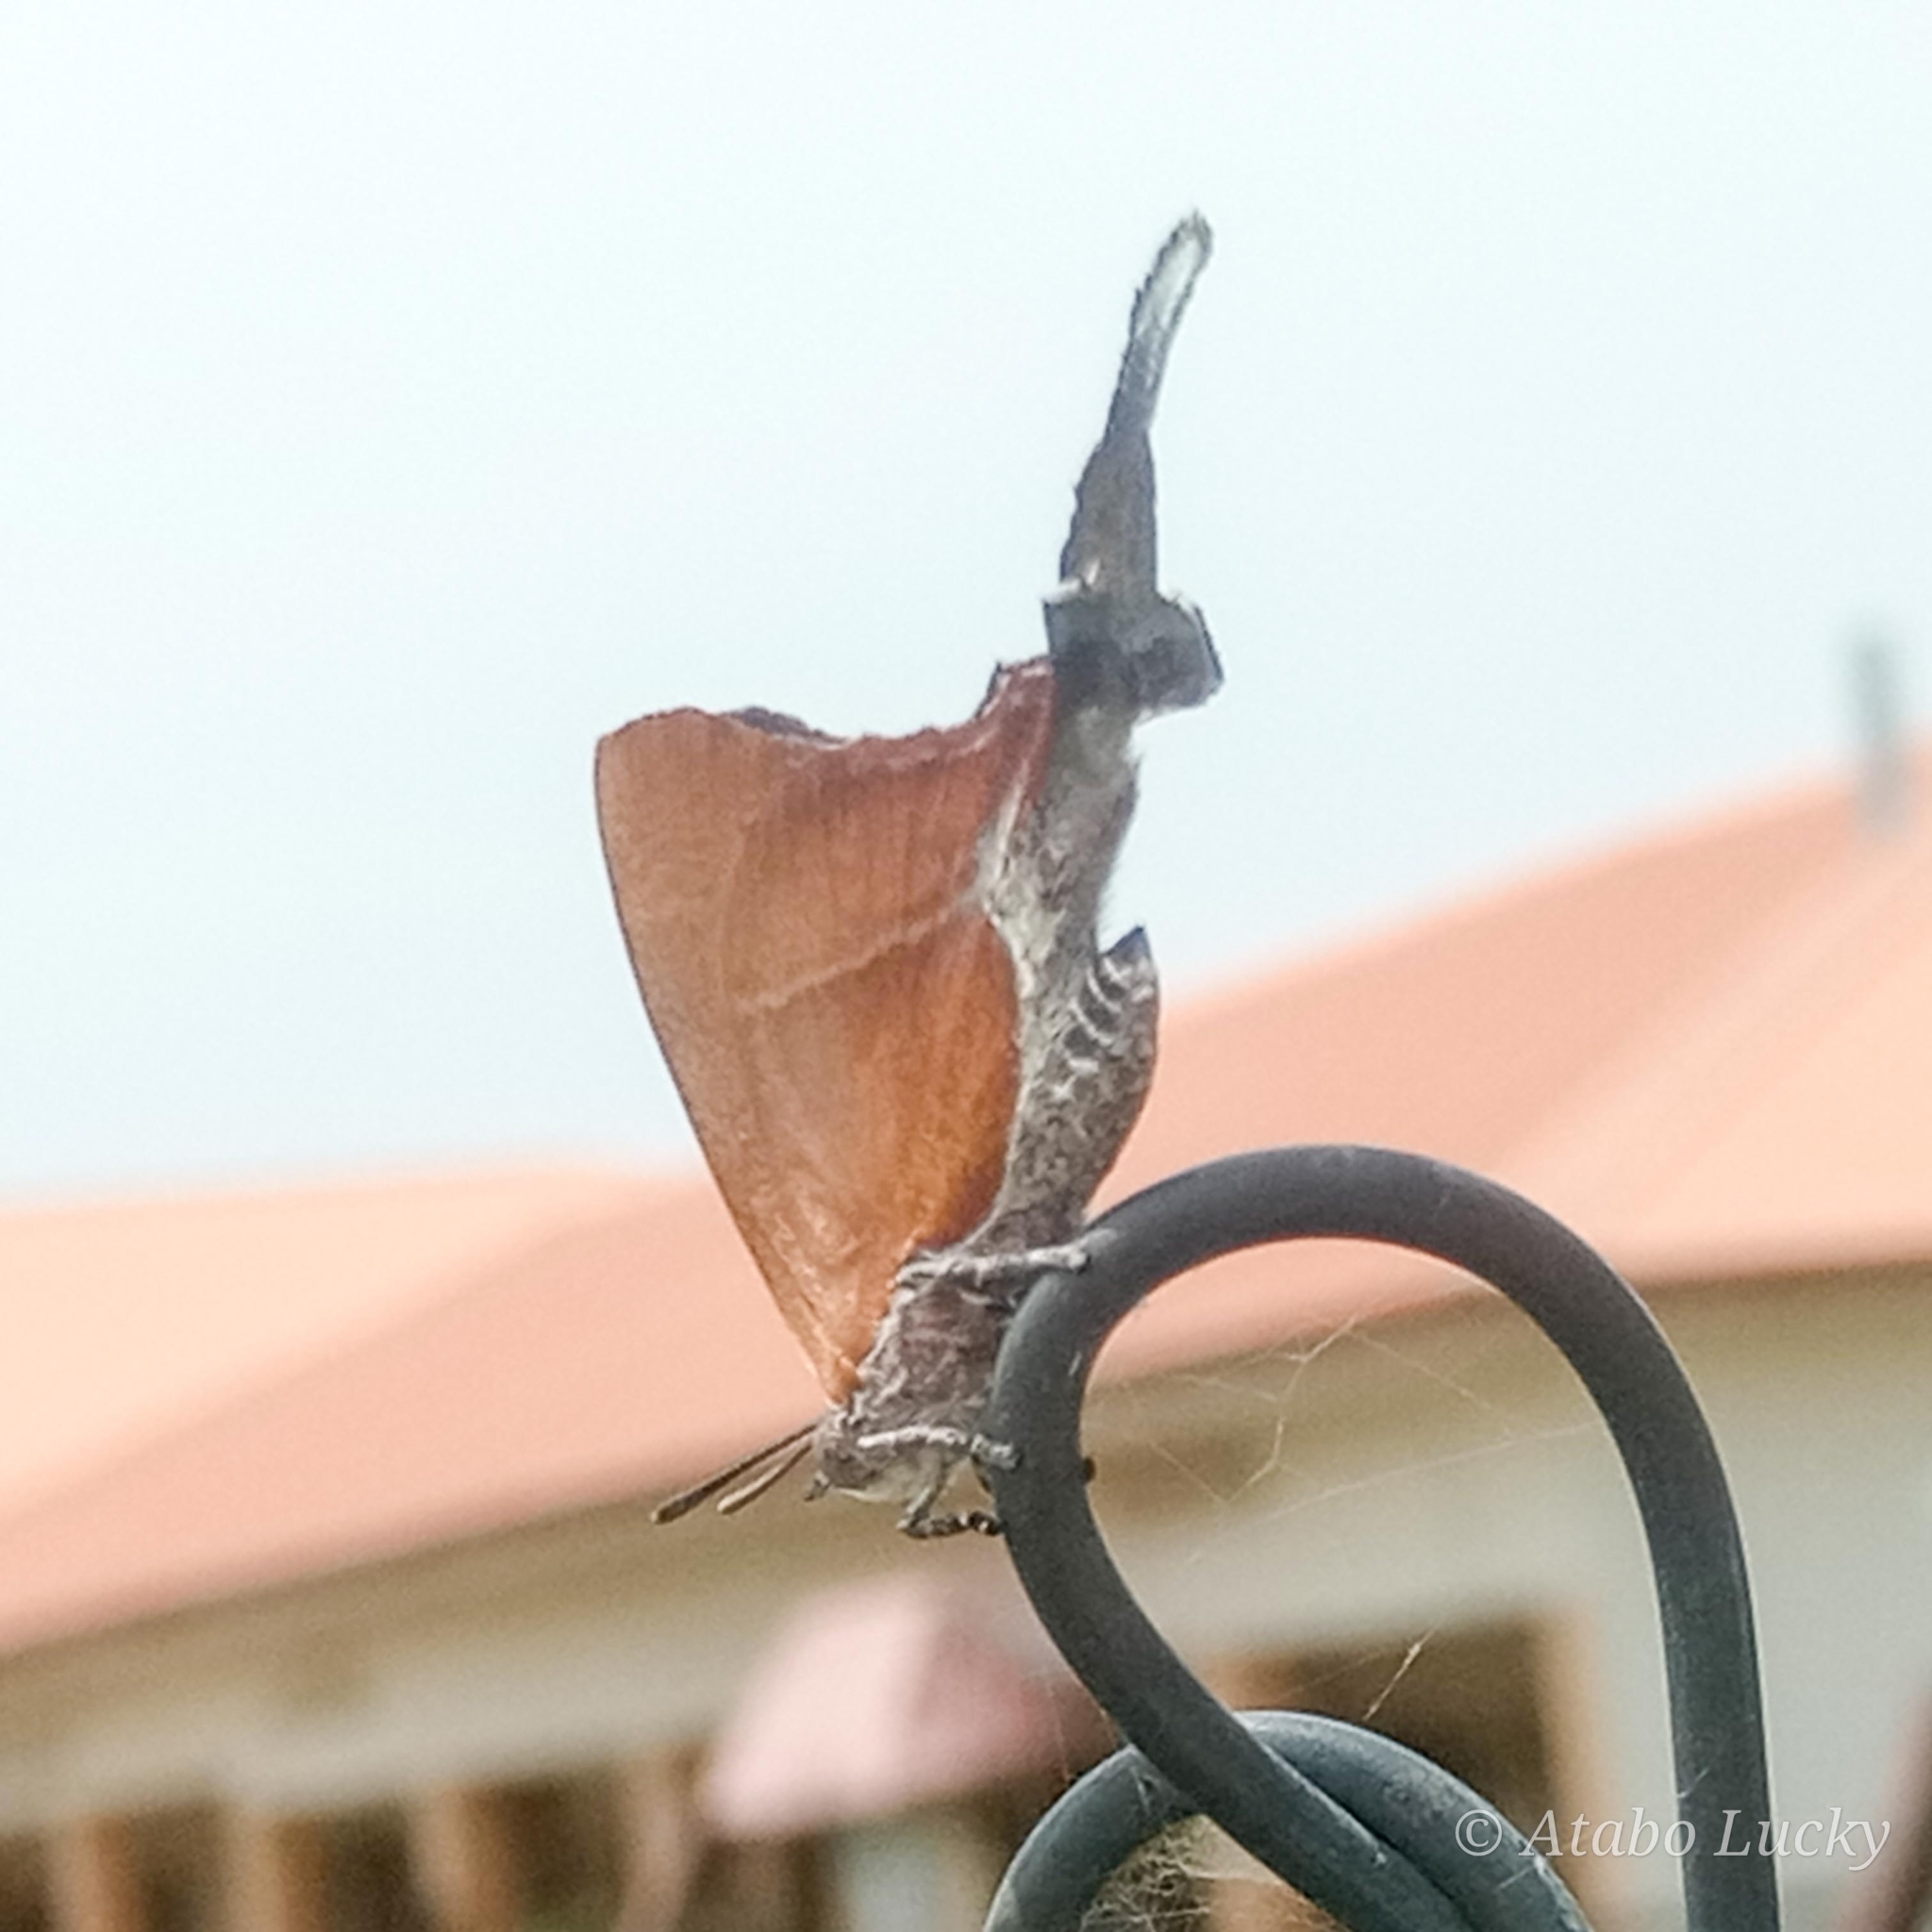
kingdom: Animalia
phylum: Arthropoda
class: Insecta
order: Lepidoptera
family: Lycaenidae
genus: Myrina
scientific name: Myrina silenus
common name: Amber fig-tree blue
